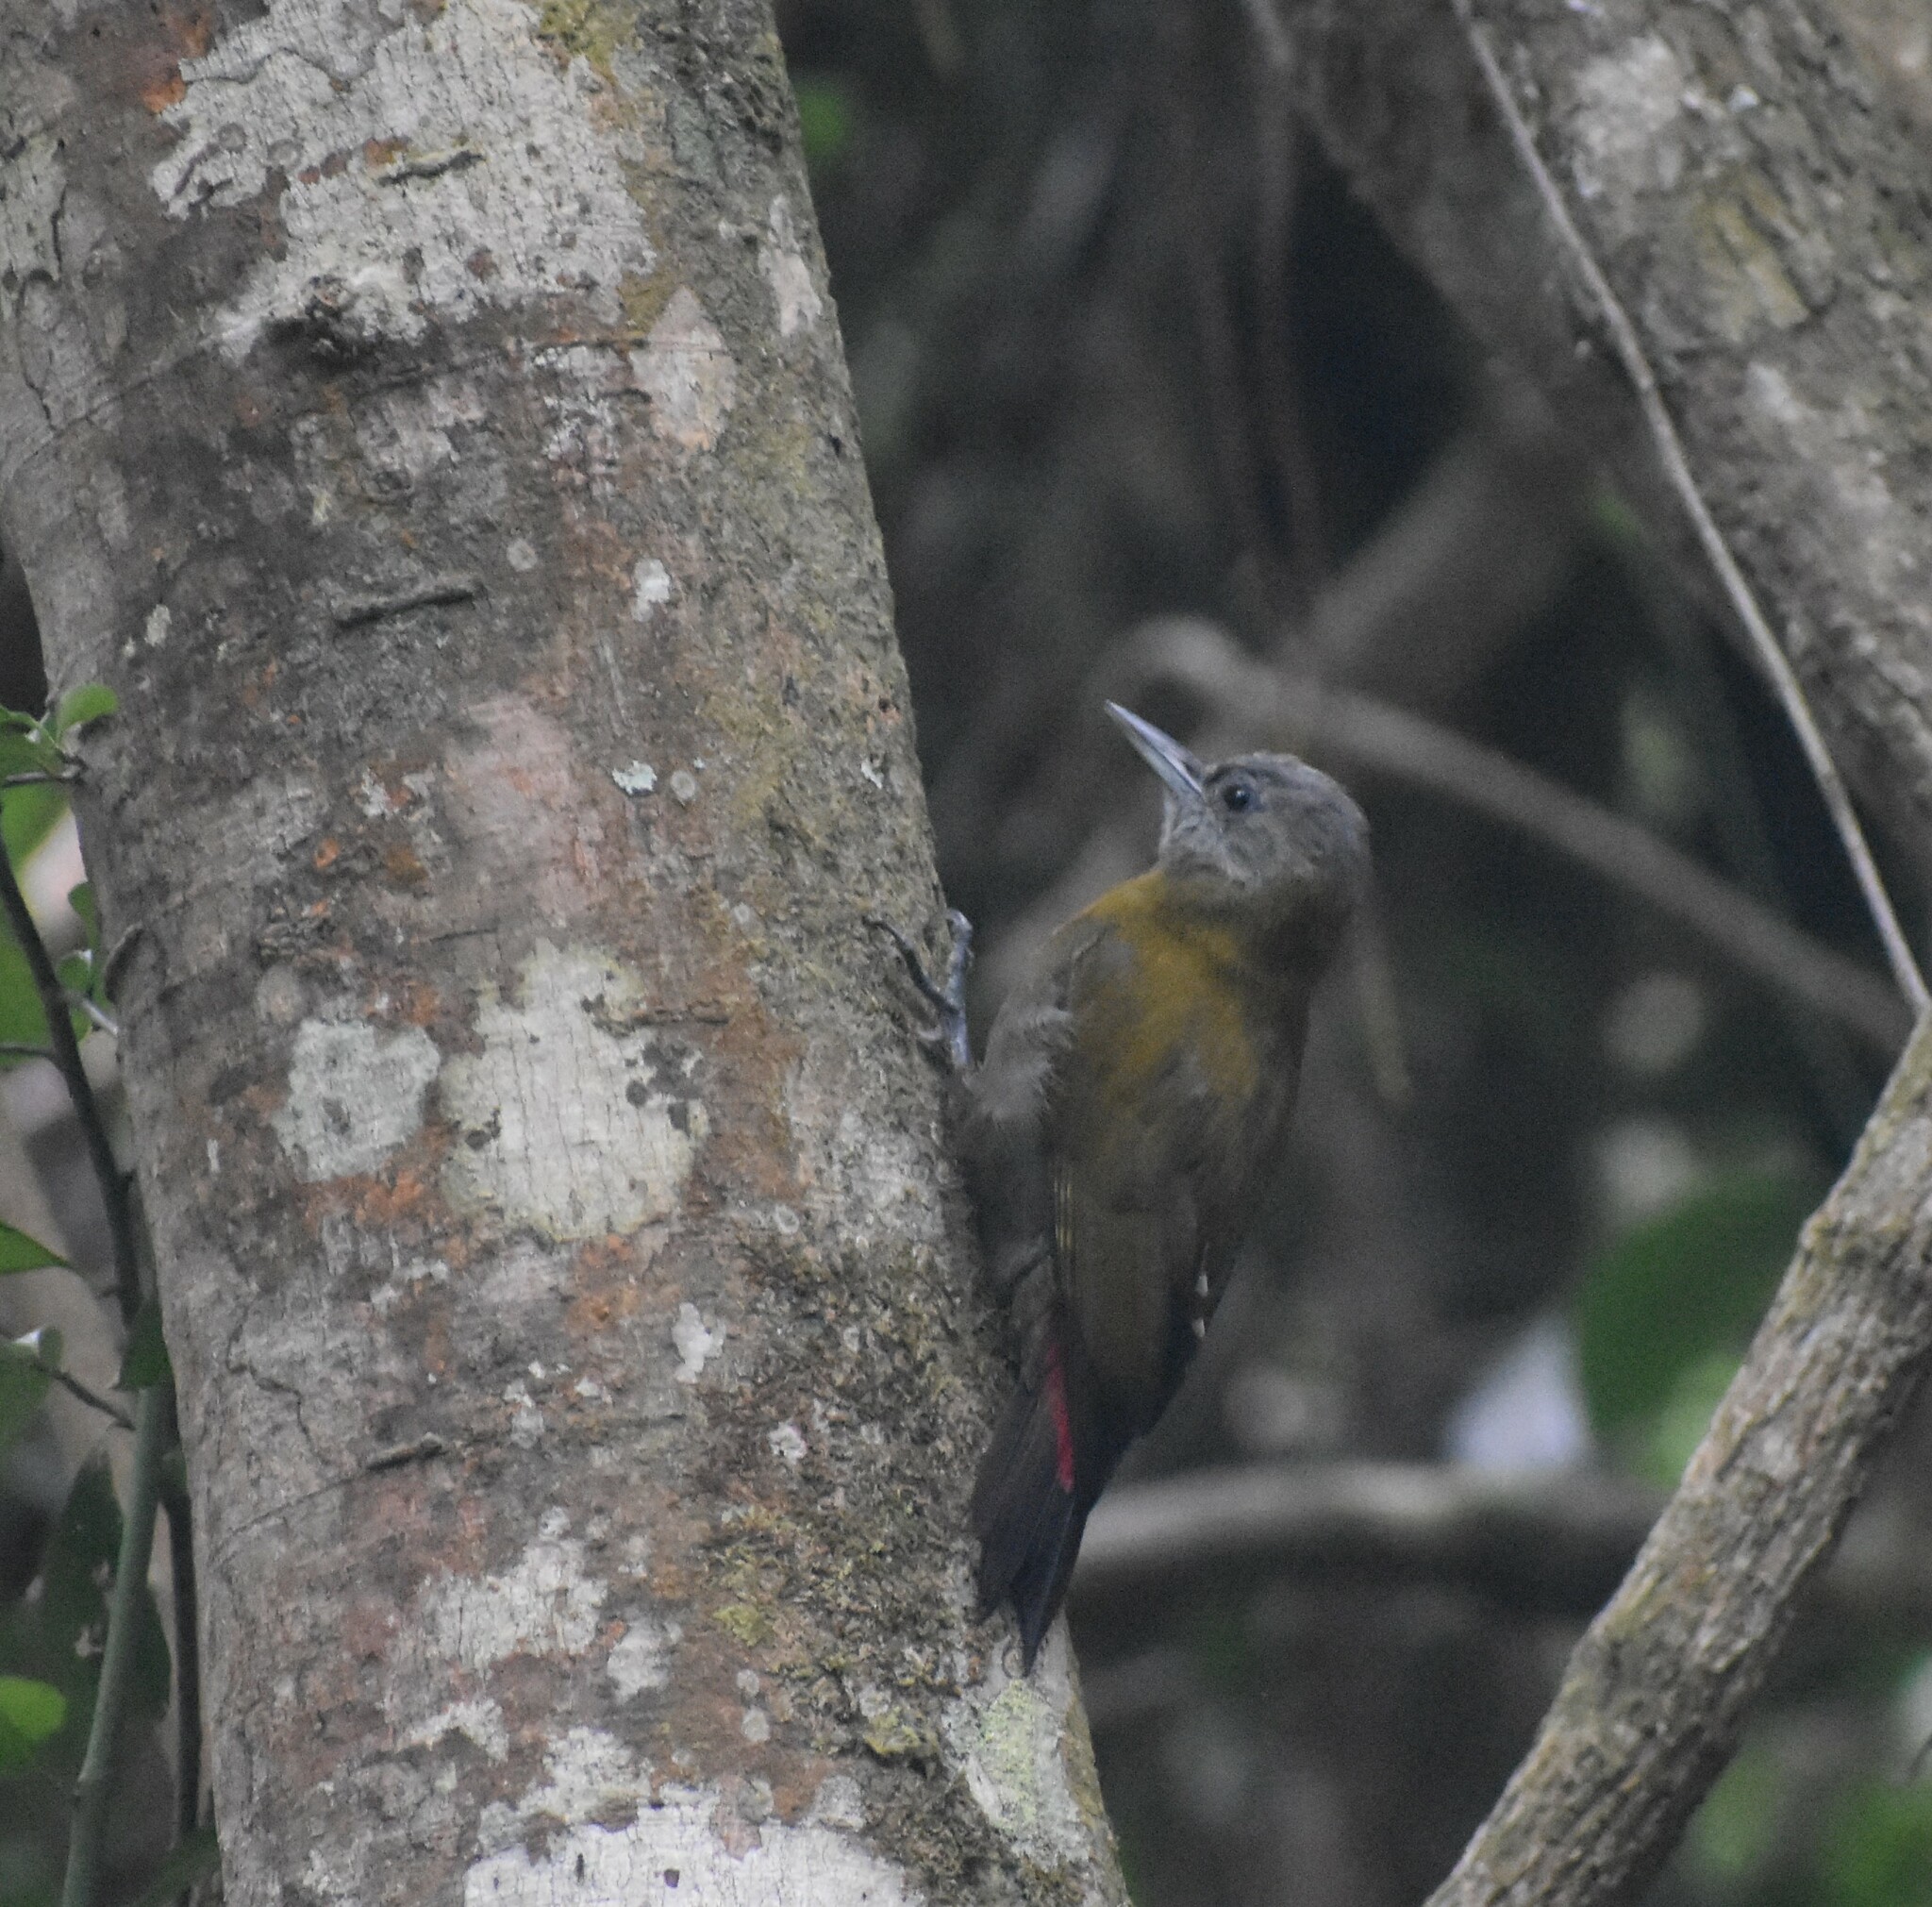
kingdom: Animalia
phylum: Chordata
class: Aves
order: Piciformes
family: Picidae
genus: Dendropicos
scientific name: Dendropicos griseocephalus
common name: Olive woodpecker
